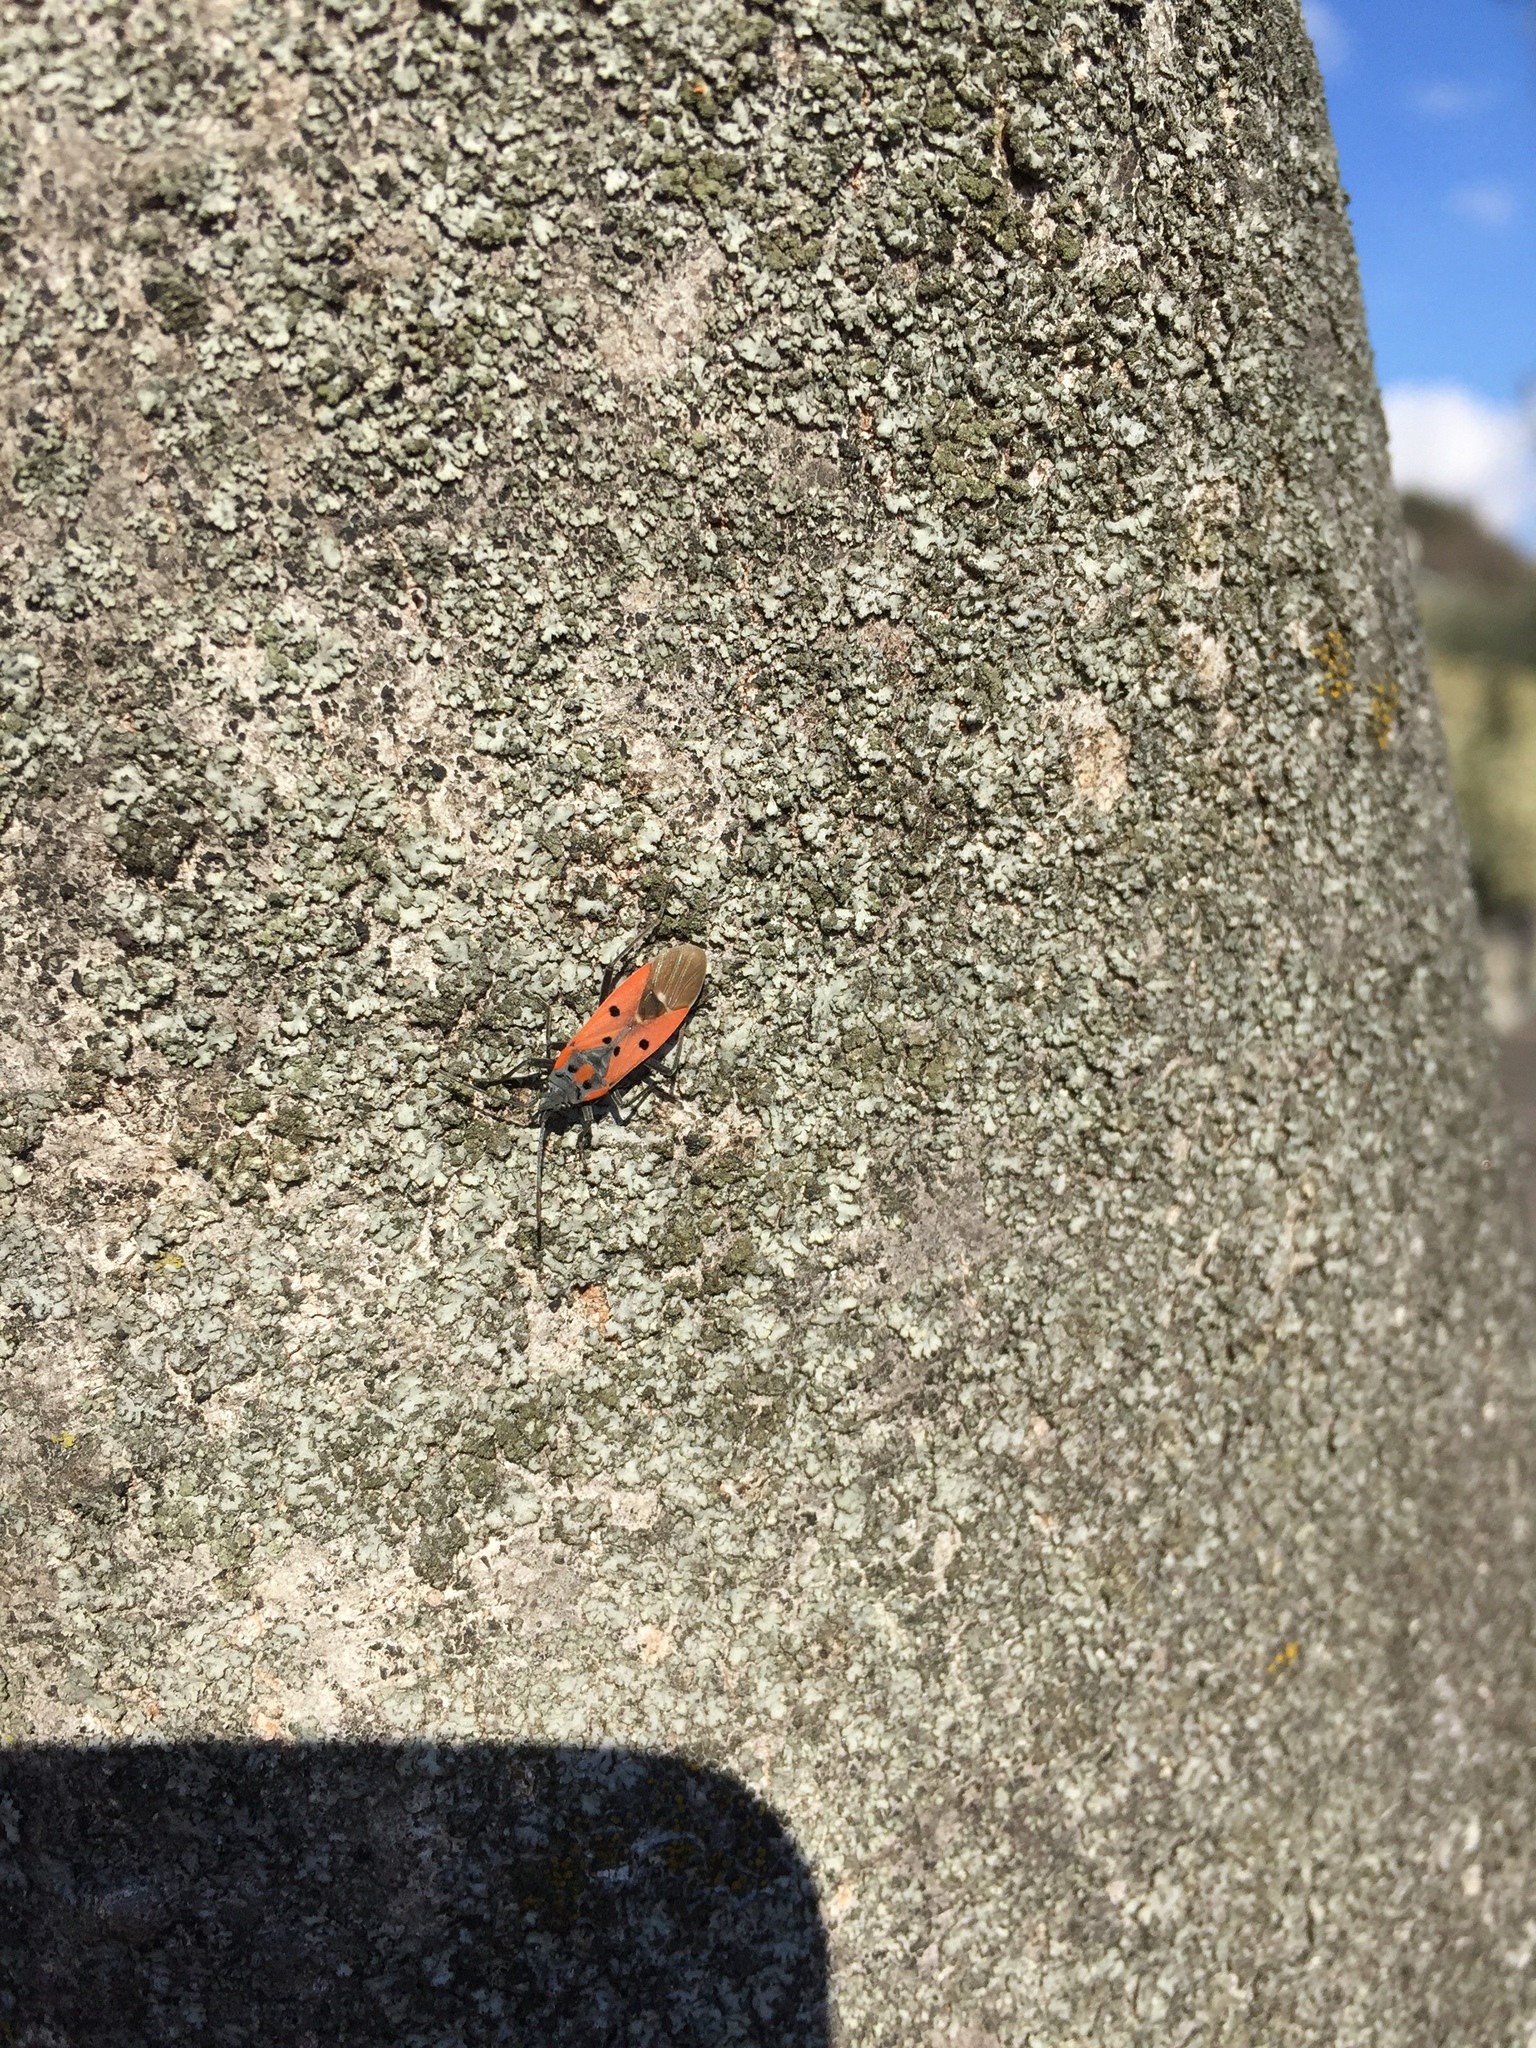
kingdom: Animalia
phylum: Arthropoda
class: Insecta
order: Hemiptera
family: Lygaeidae
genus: Lygaeus
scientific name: Lygaeus creticus
